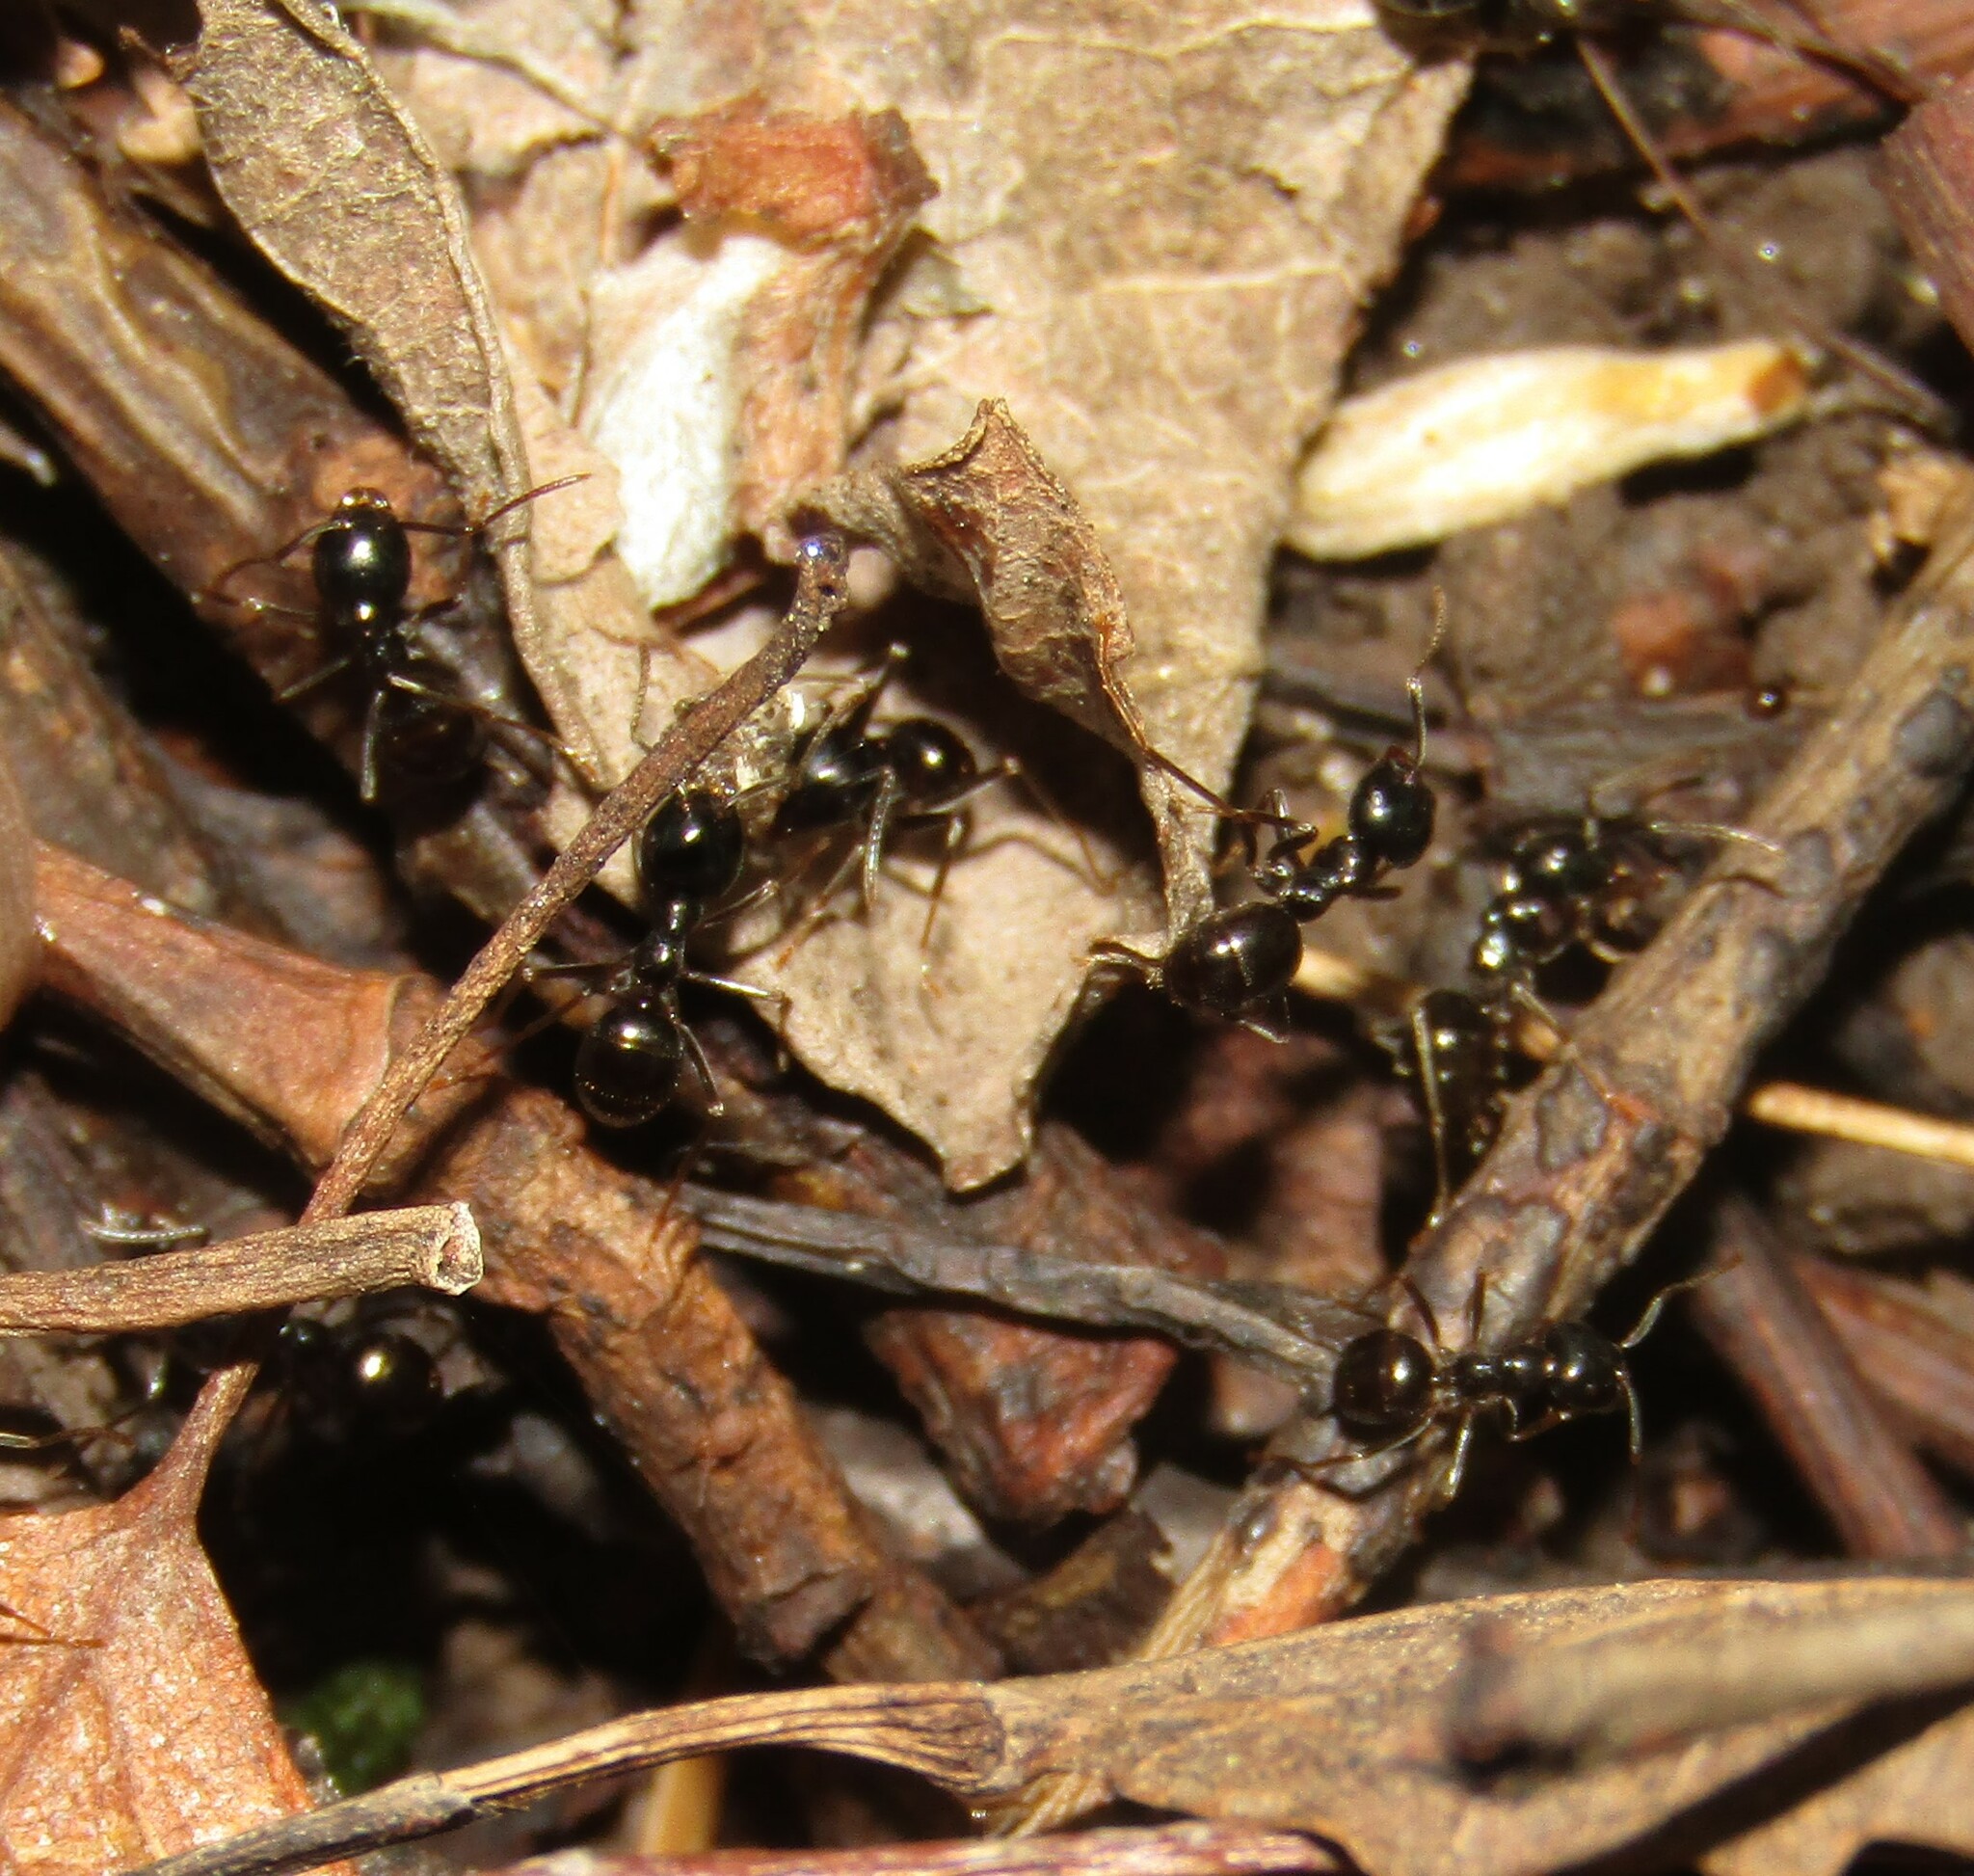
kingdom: Animalia
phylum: Arthropoda
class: Insecta
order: Hymenoptera
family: Formicidae
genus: Lasius
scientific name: Lasius fuliginosus
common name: Jet ant
